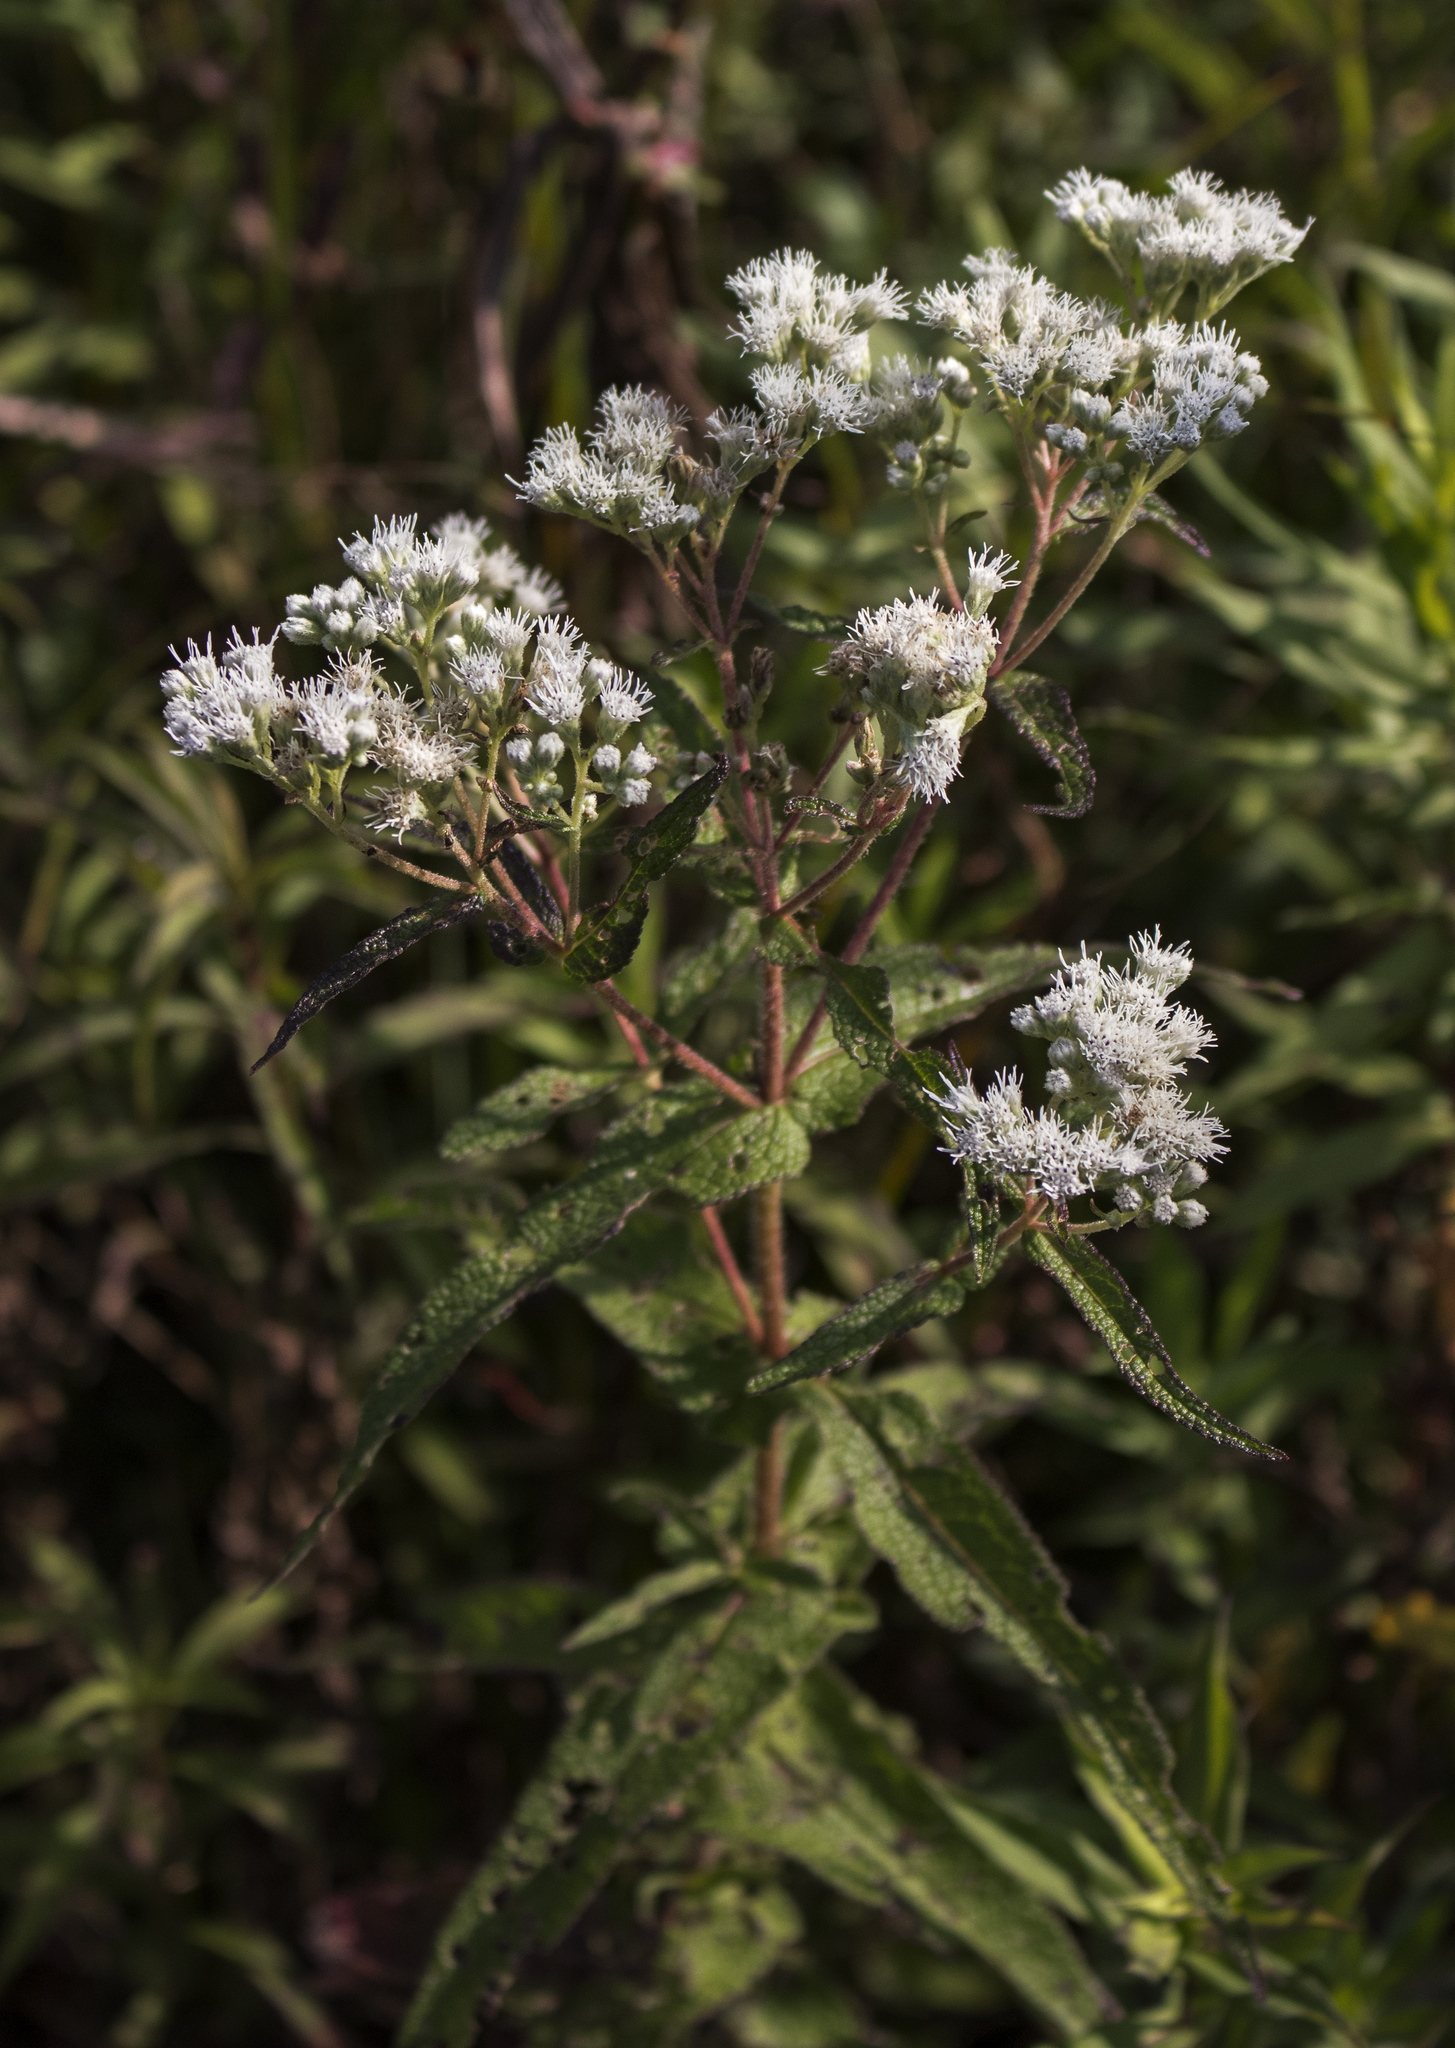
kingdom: Plantae
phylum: Tracheophyta
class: Magnoliopsida
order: Asterales
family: Asteraceae
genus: Eupatorium
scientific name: Eupatorium perfoliatum
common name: Boneset
